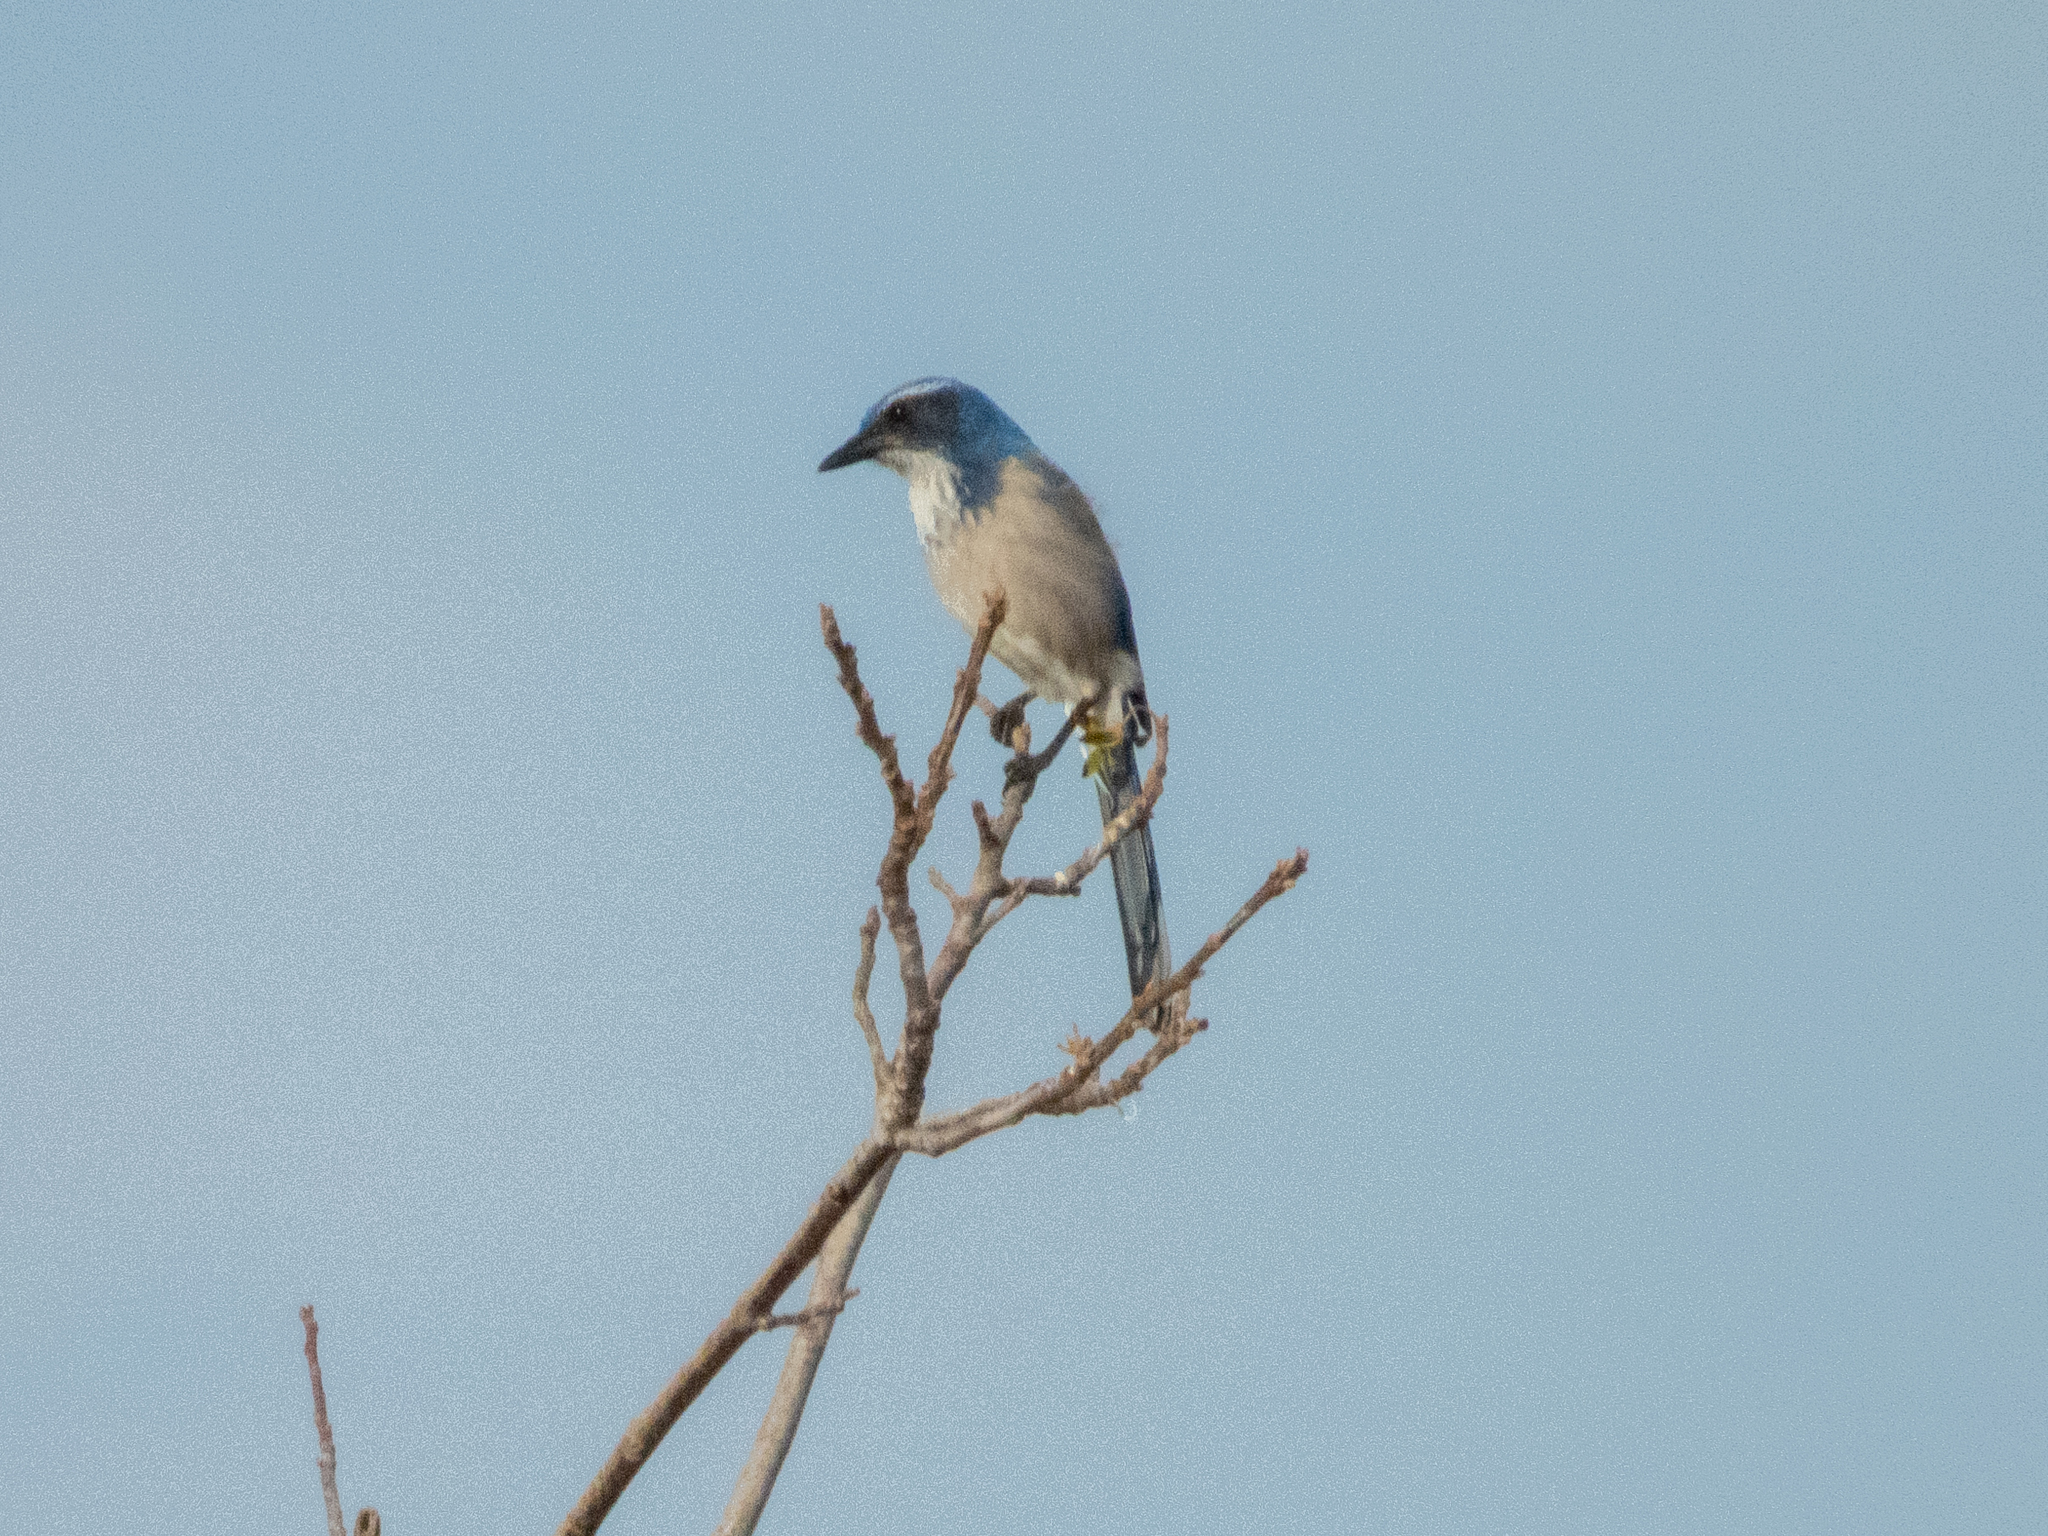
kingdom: Animalia
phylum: Chordata
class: Aves
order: Passeriformes
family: Corvidae
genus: Aphelocoma
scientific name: Aphelocoma californica
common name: California scrub-jay
